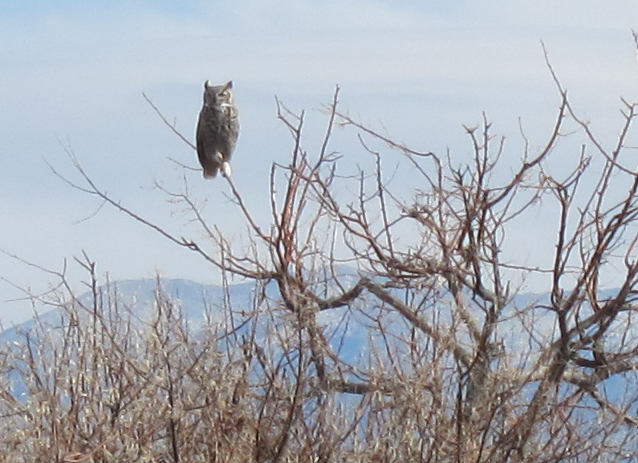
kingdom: Animalia
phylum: Chordata
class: Aves
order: Strigiformes
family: Strigidae
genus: Bubo
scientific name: Bubo virginianus
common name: Great horned owl
